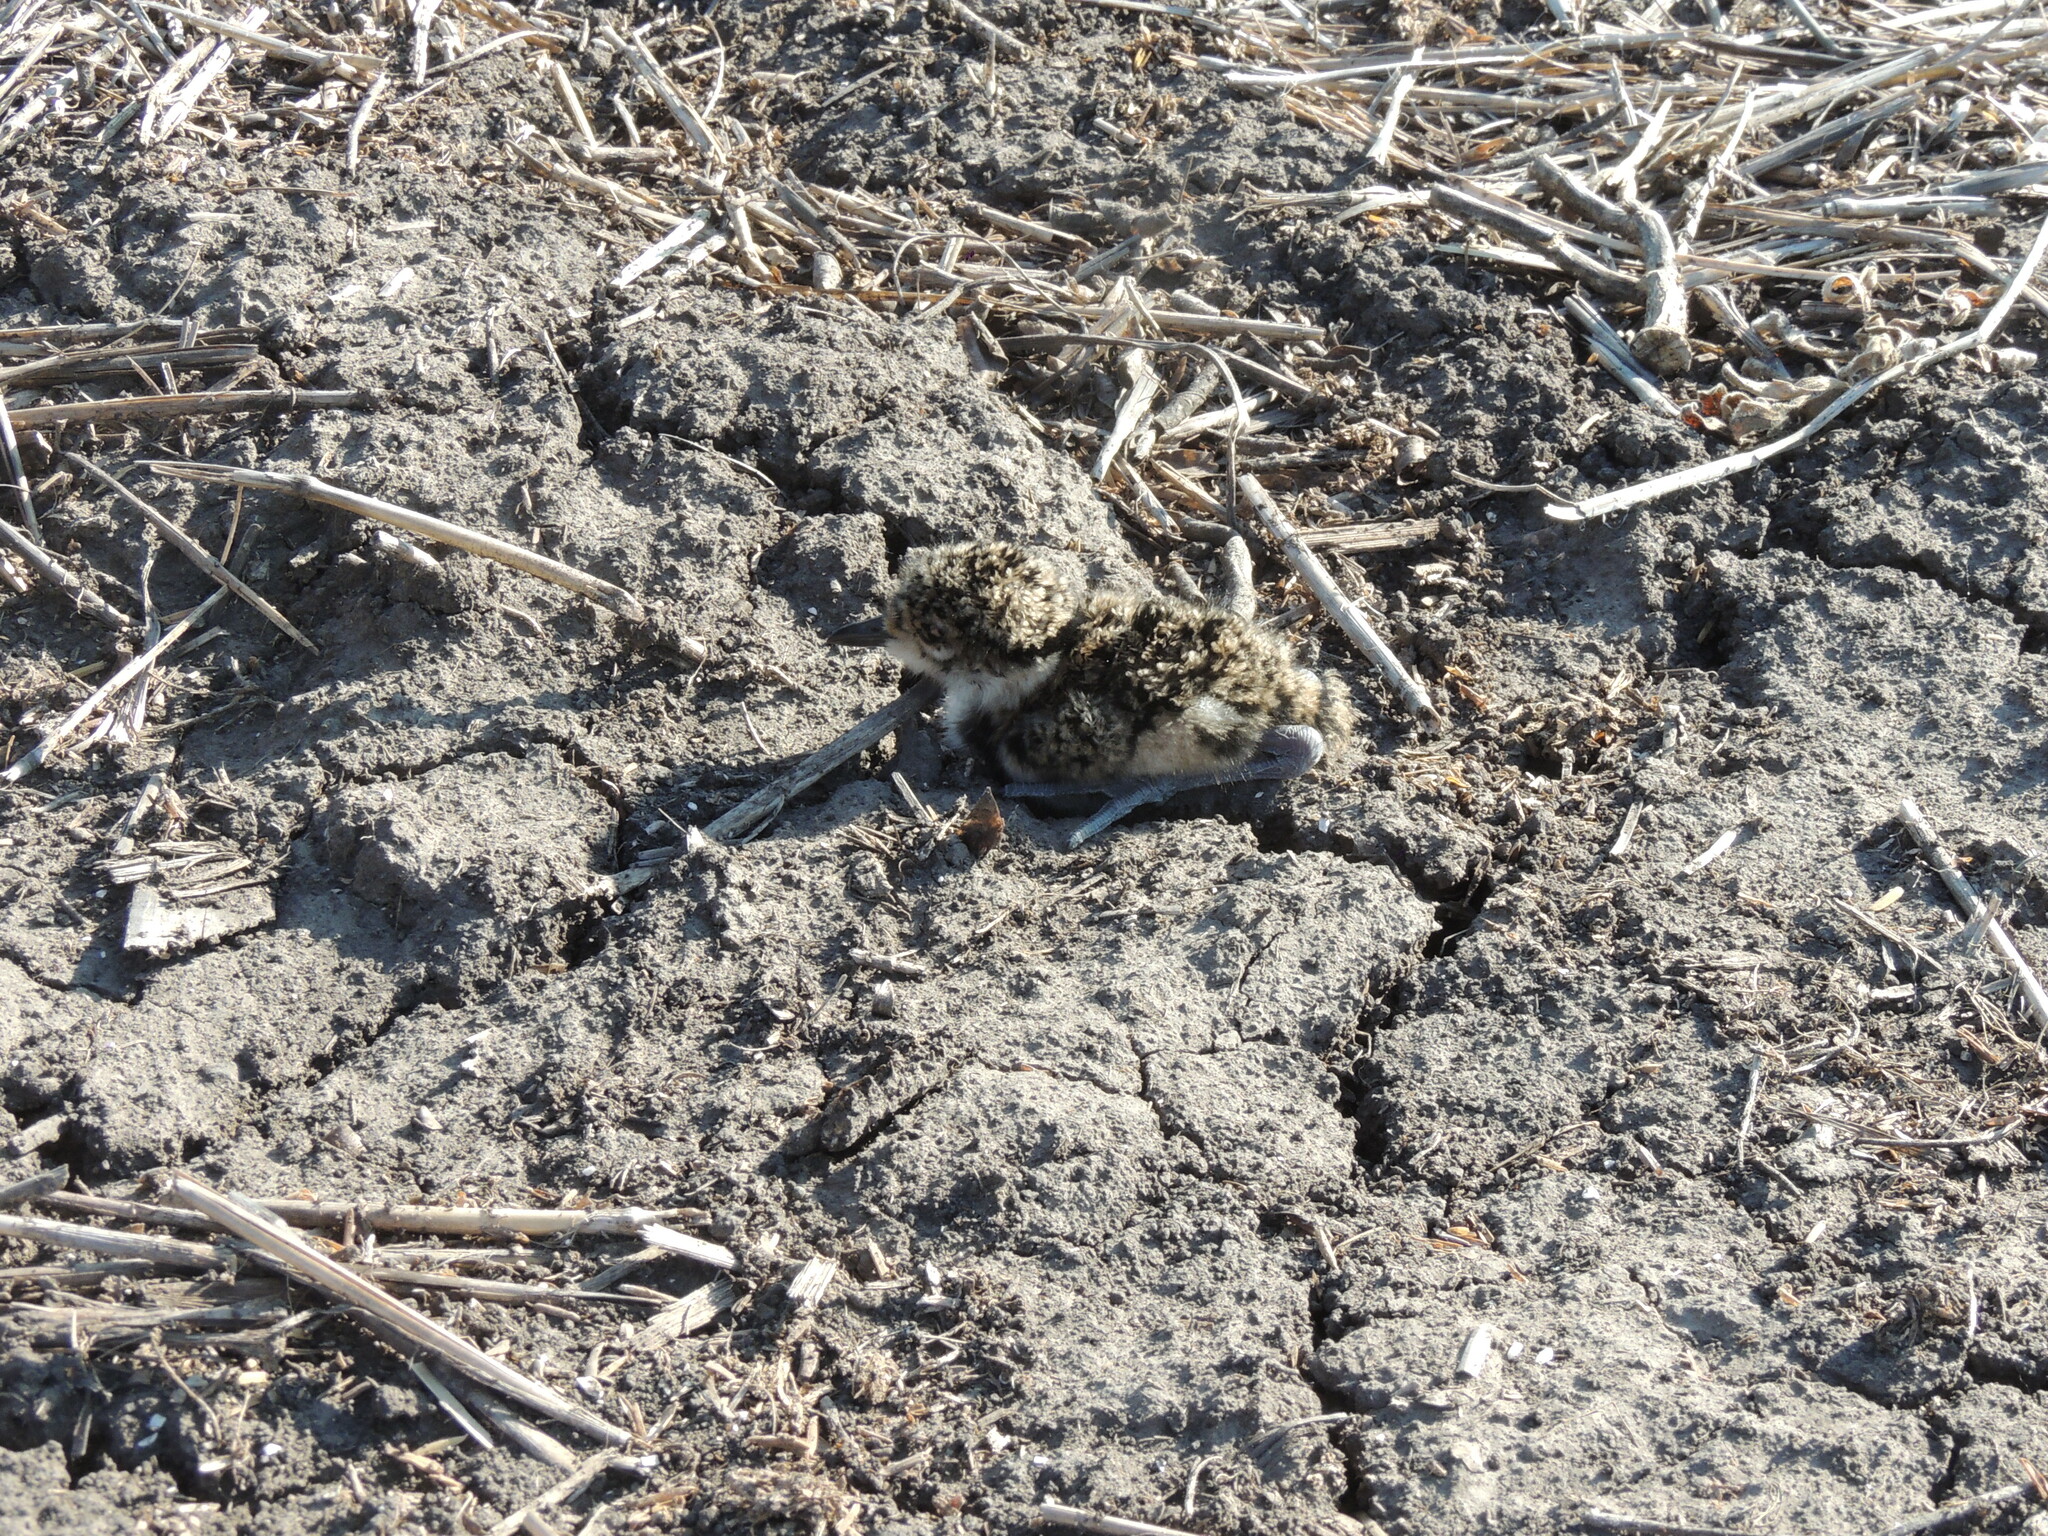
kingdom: Animalia
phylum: Chordata
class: Aves
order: Charadriiformes
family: Charadriidae
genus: Vanellus
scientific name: Vanellus chilensis
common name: Southern lapwing
